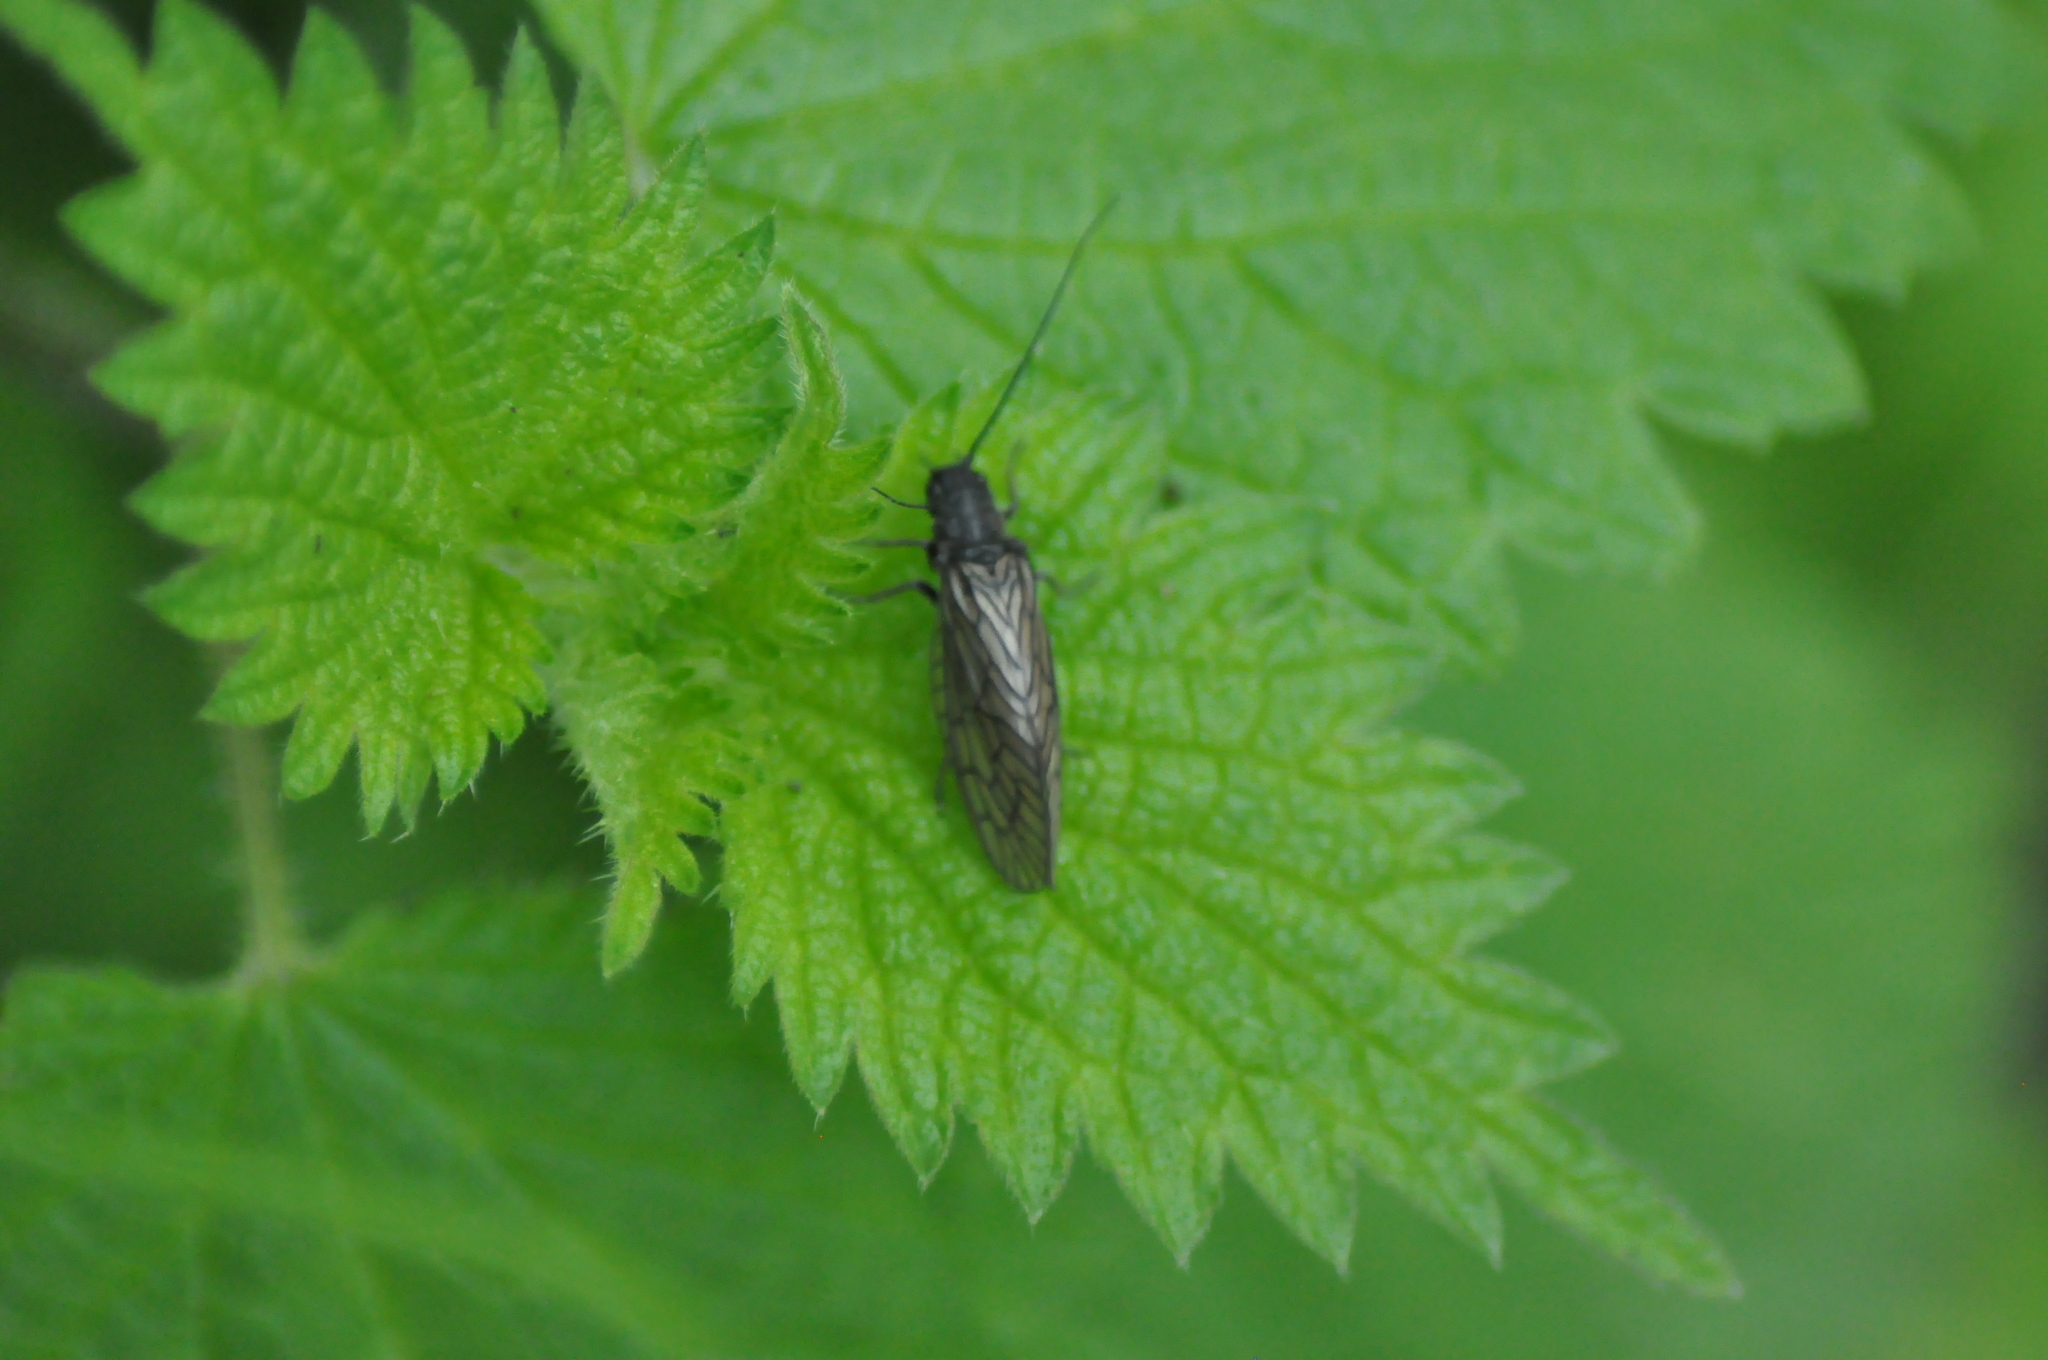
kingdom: Animalia
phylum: Arthropoda
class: Insecta
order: Megaloptera
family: Sialidae
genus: Sialis
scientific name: Sialis
